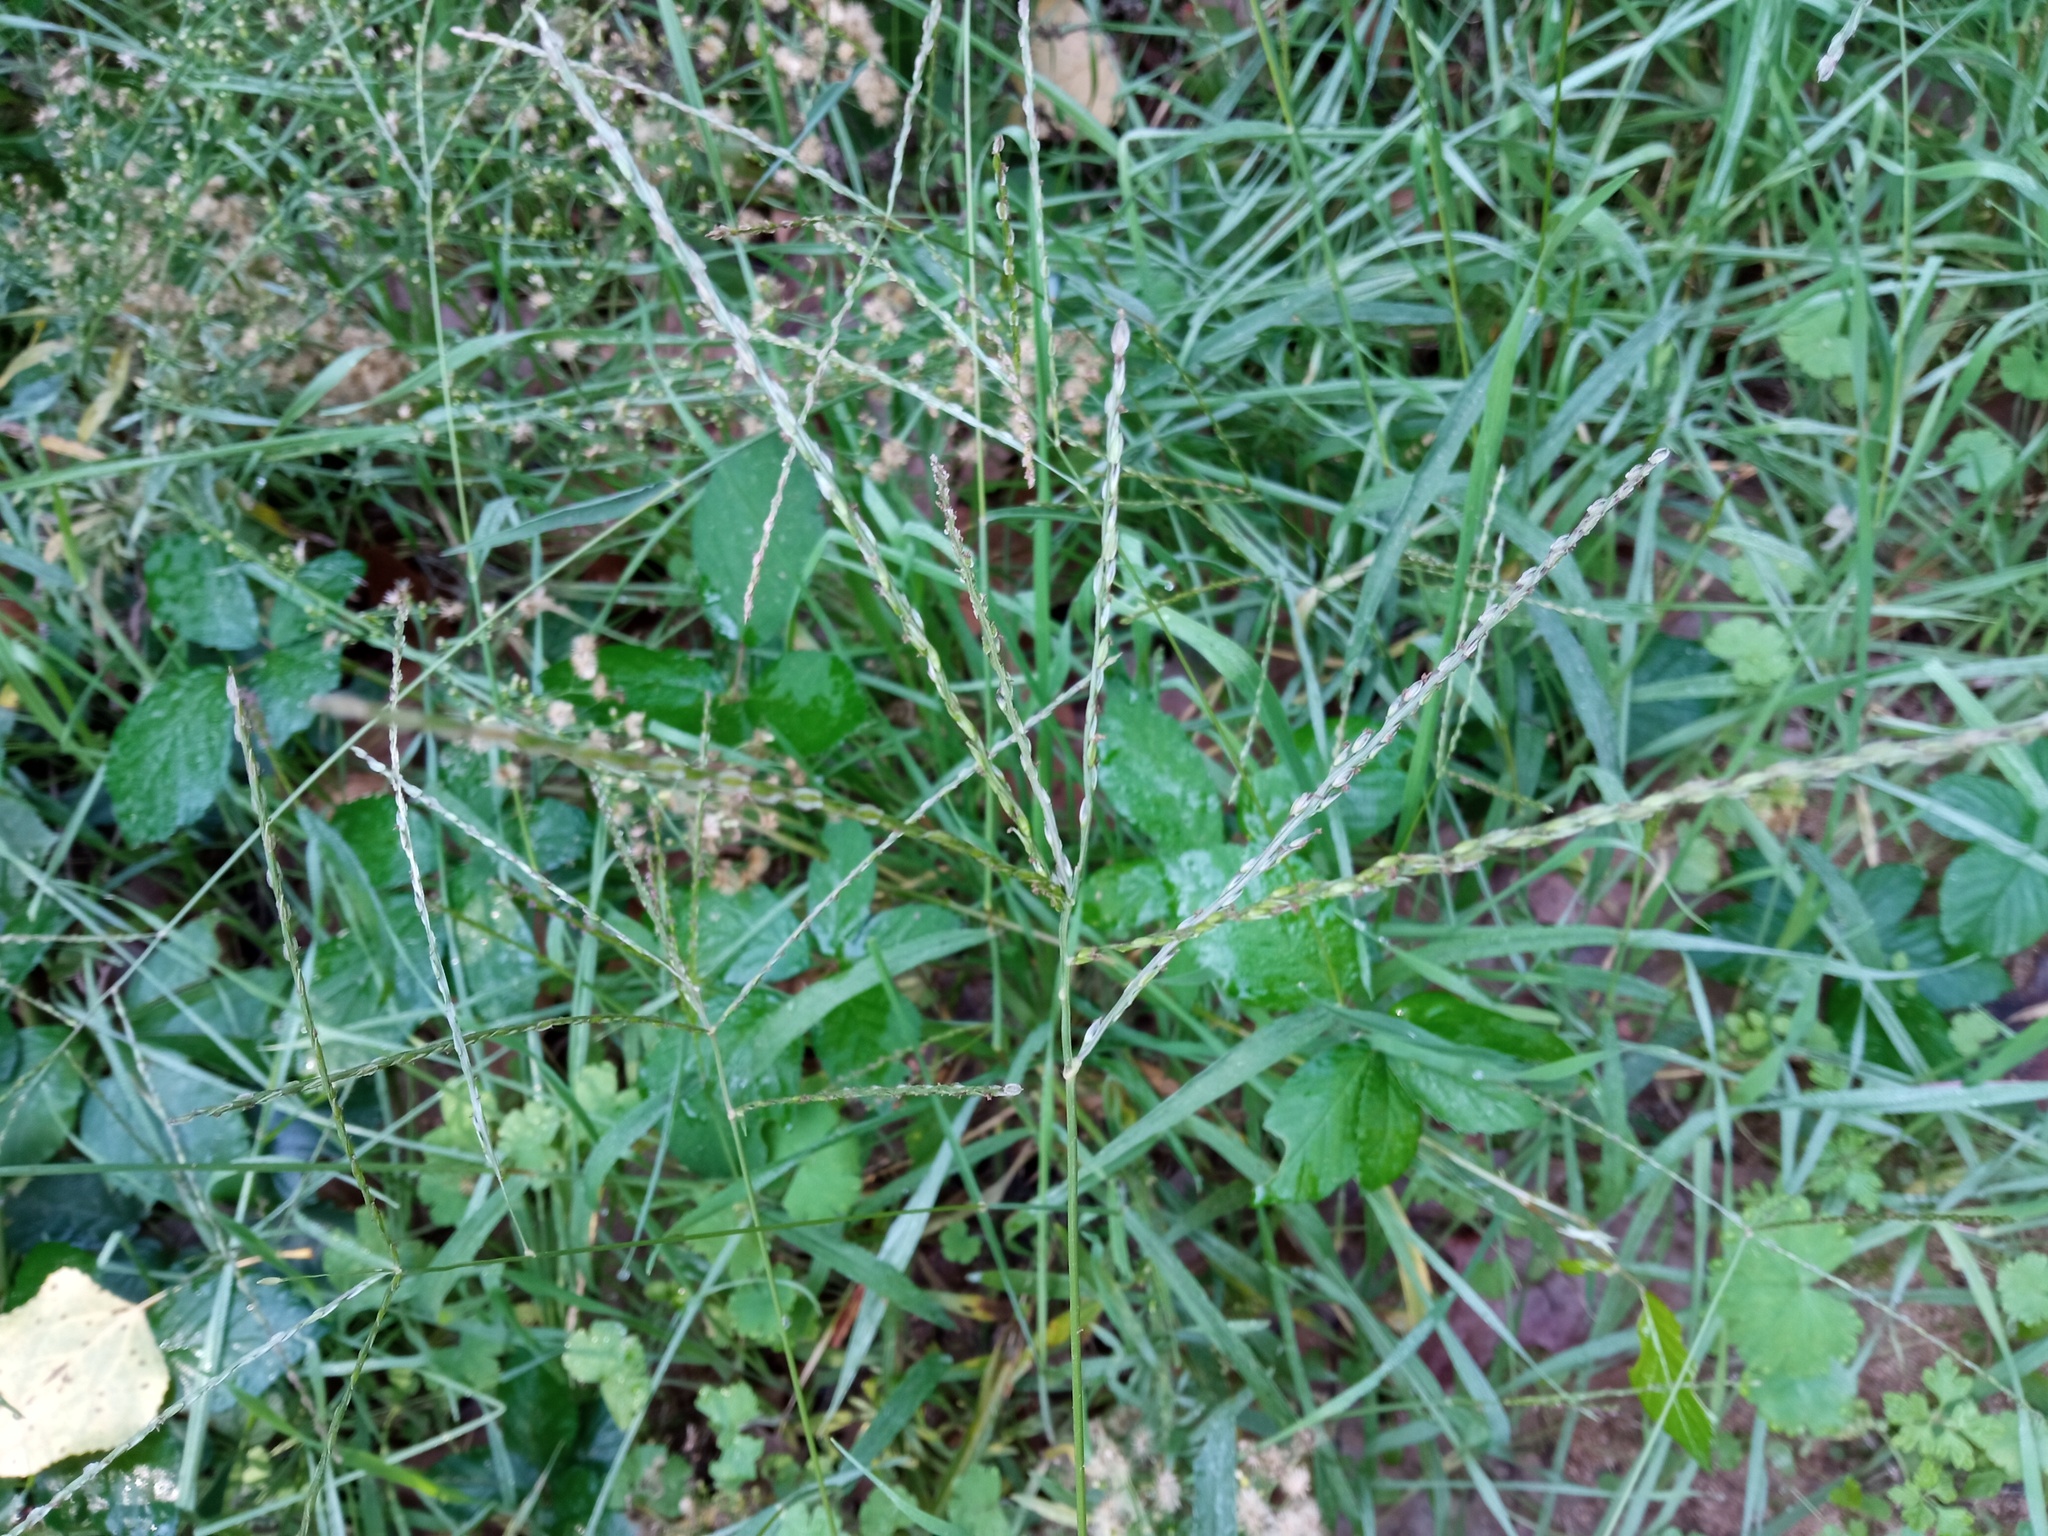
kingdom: Plantae
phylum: Tracheophyta
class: Liliopsida
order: Poales
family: Poaceae
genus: Digitaria
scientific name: Digitaria sanguinalis
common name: Hairy crabgrass
